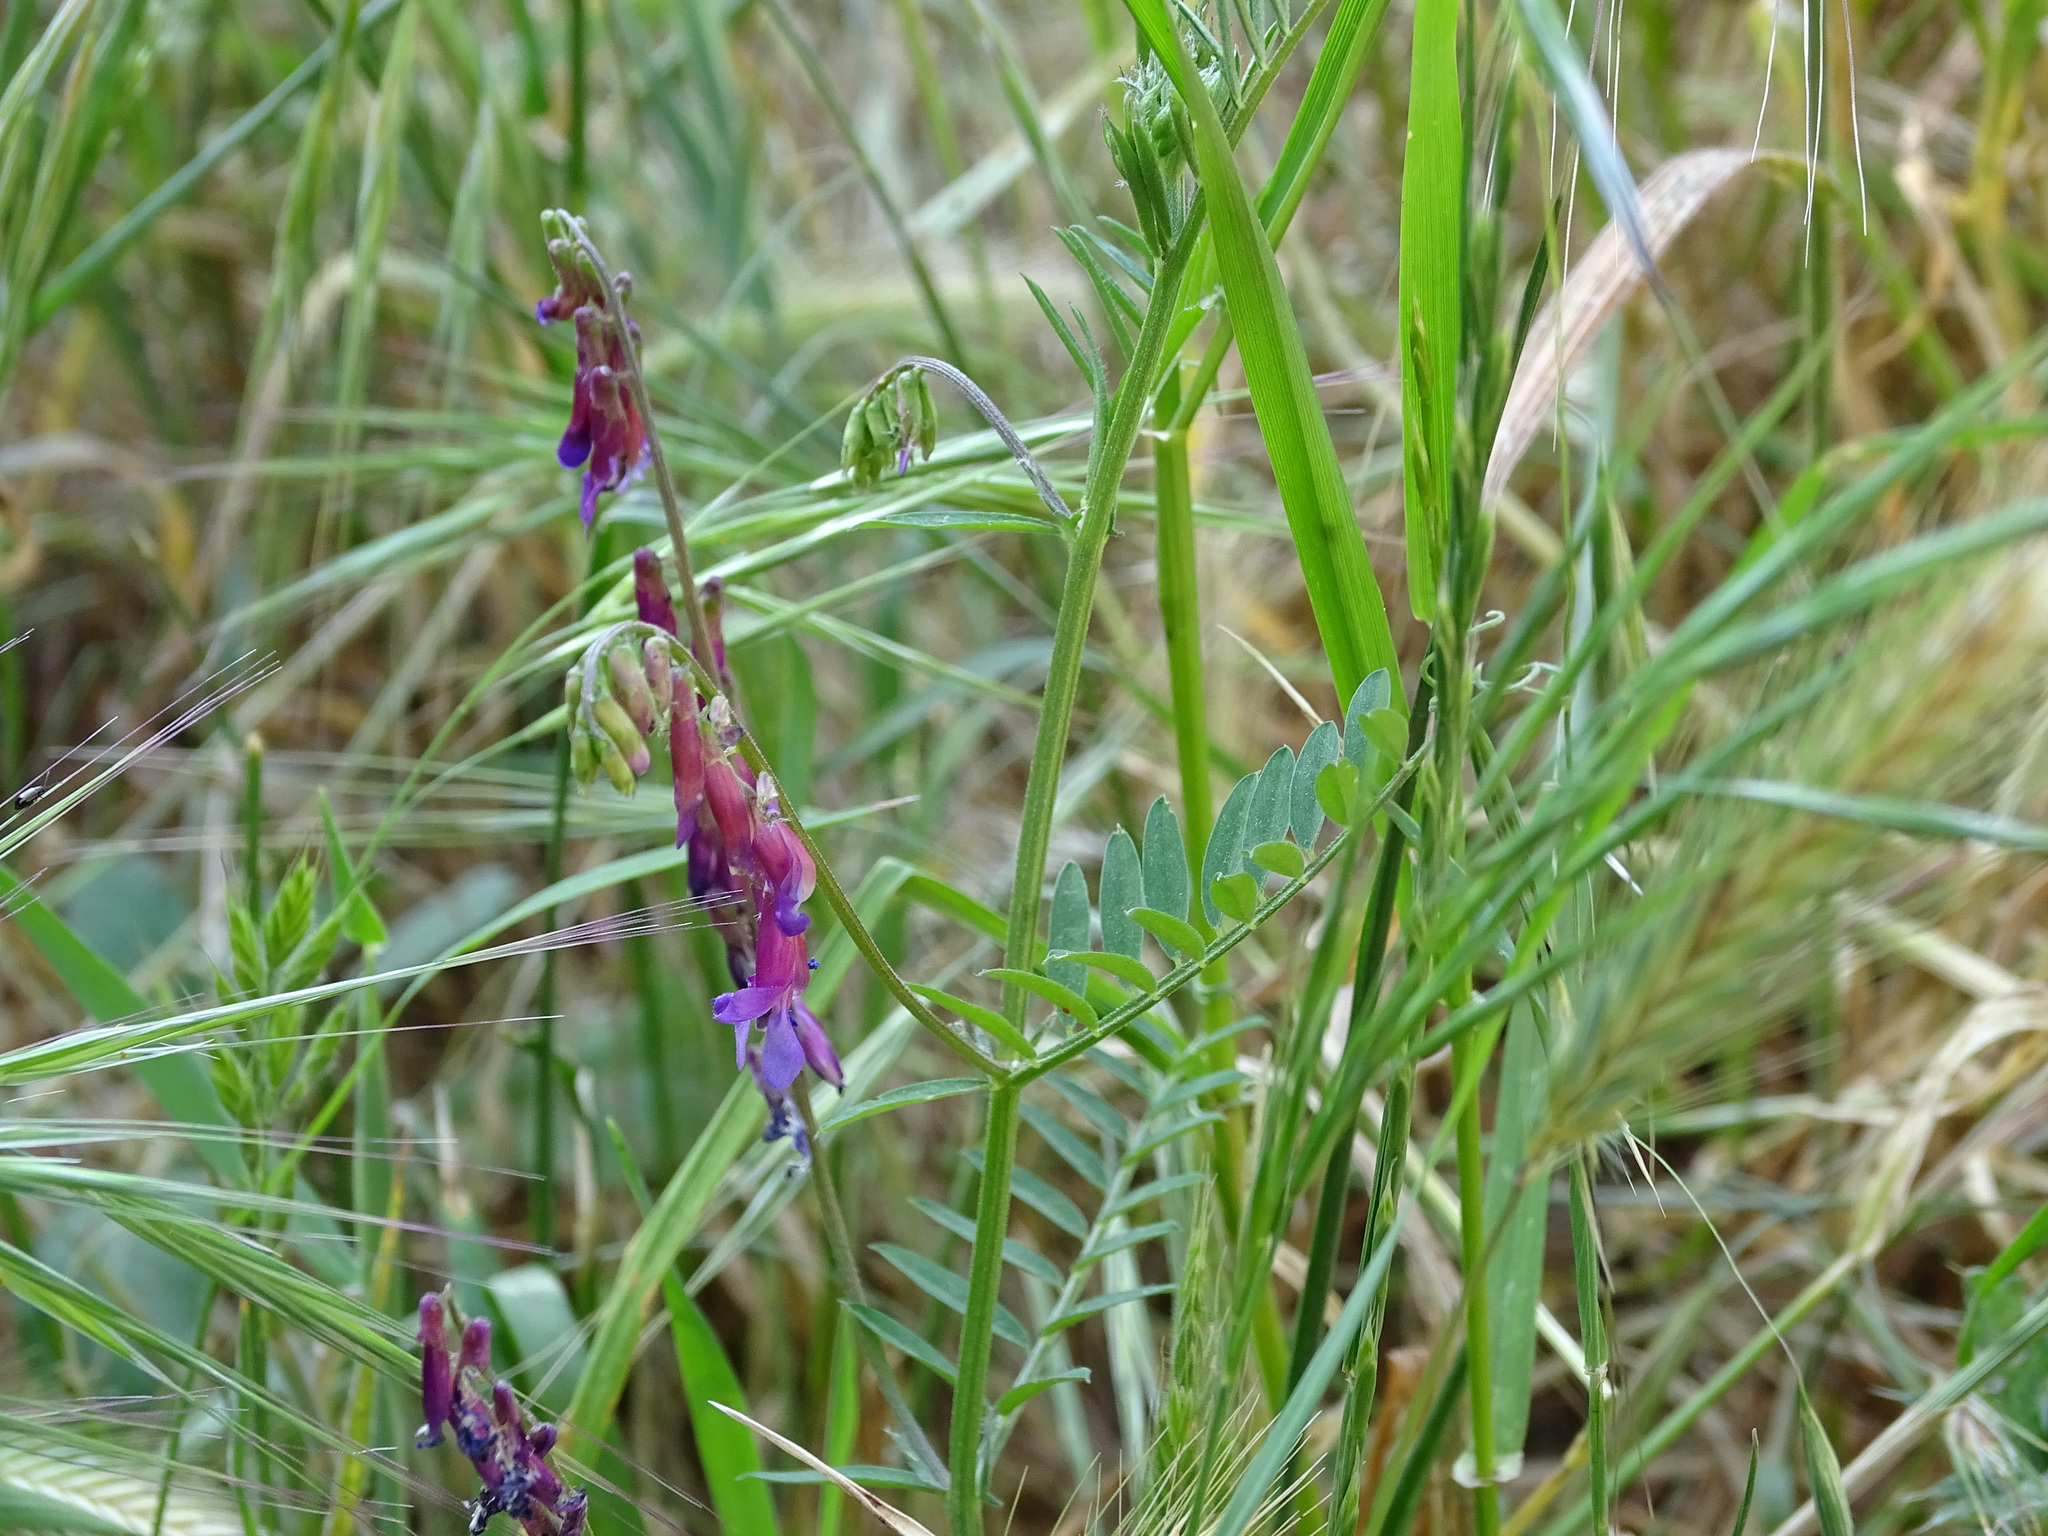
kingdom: Plantae
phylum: Tracheophyta
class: Magnoliopsida
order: Fabales
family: Fabaceae
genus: Vicia
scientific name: Vicia villosa
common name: Fodder vetch
